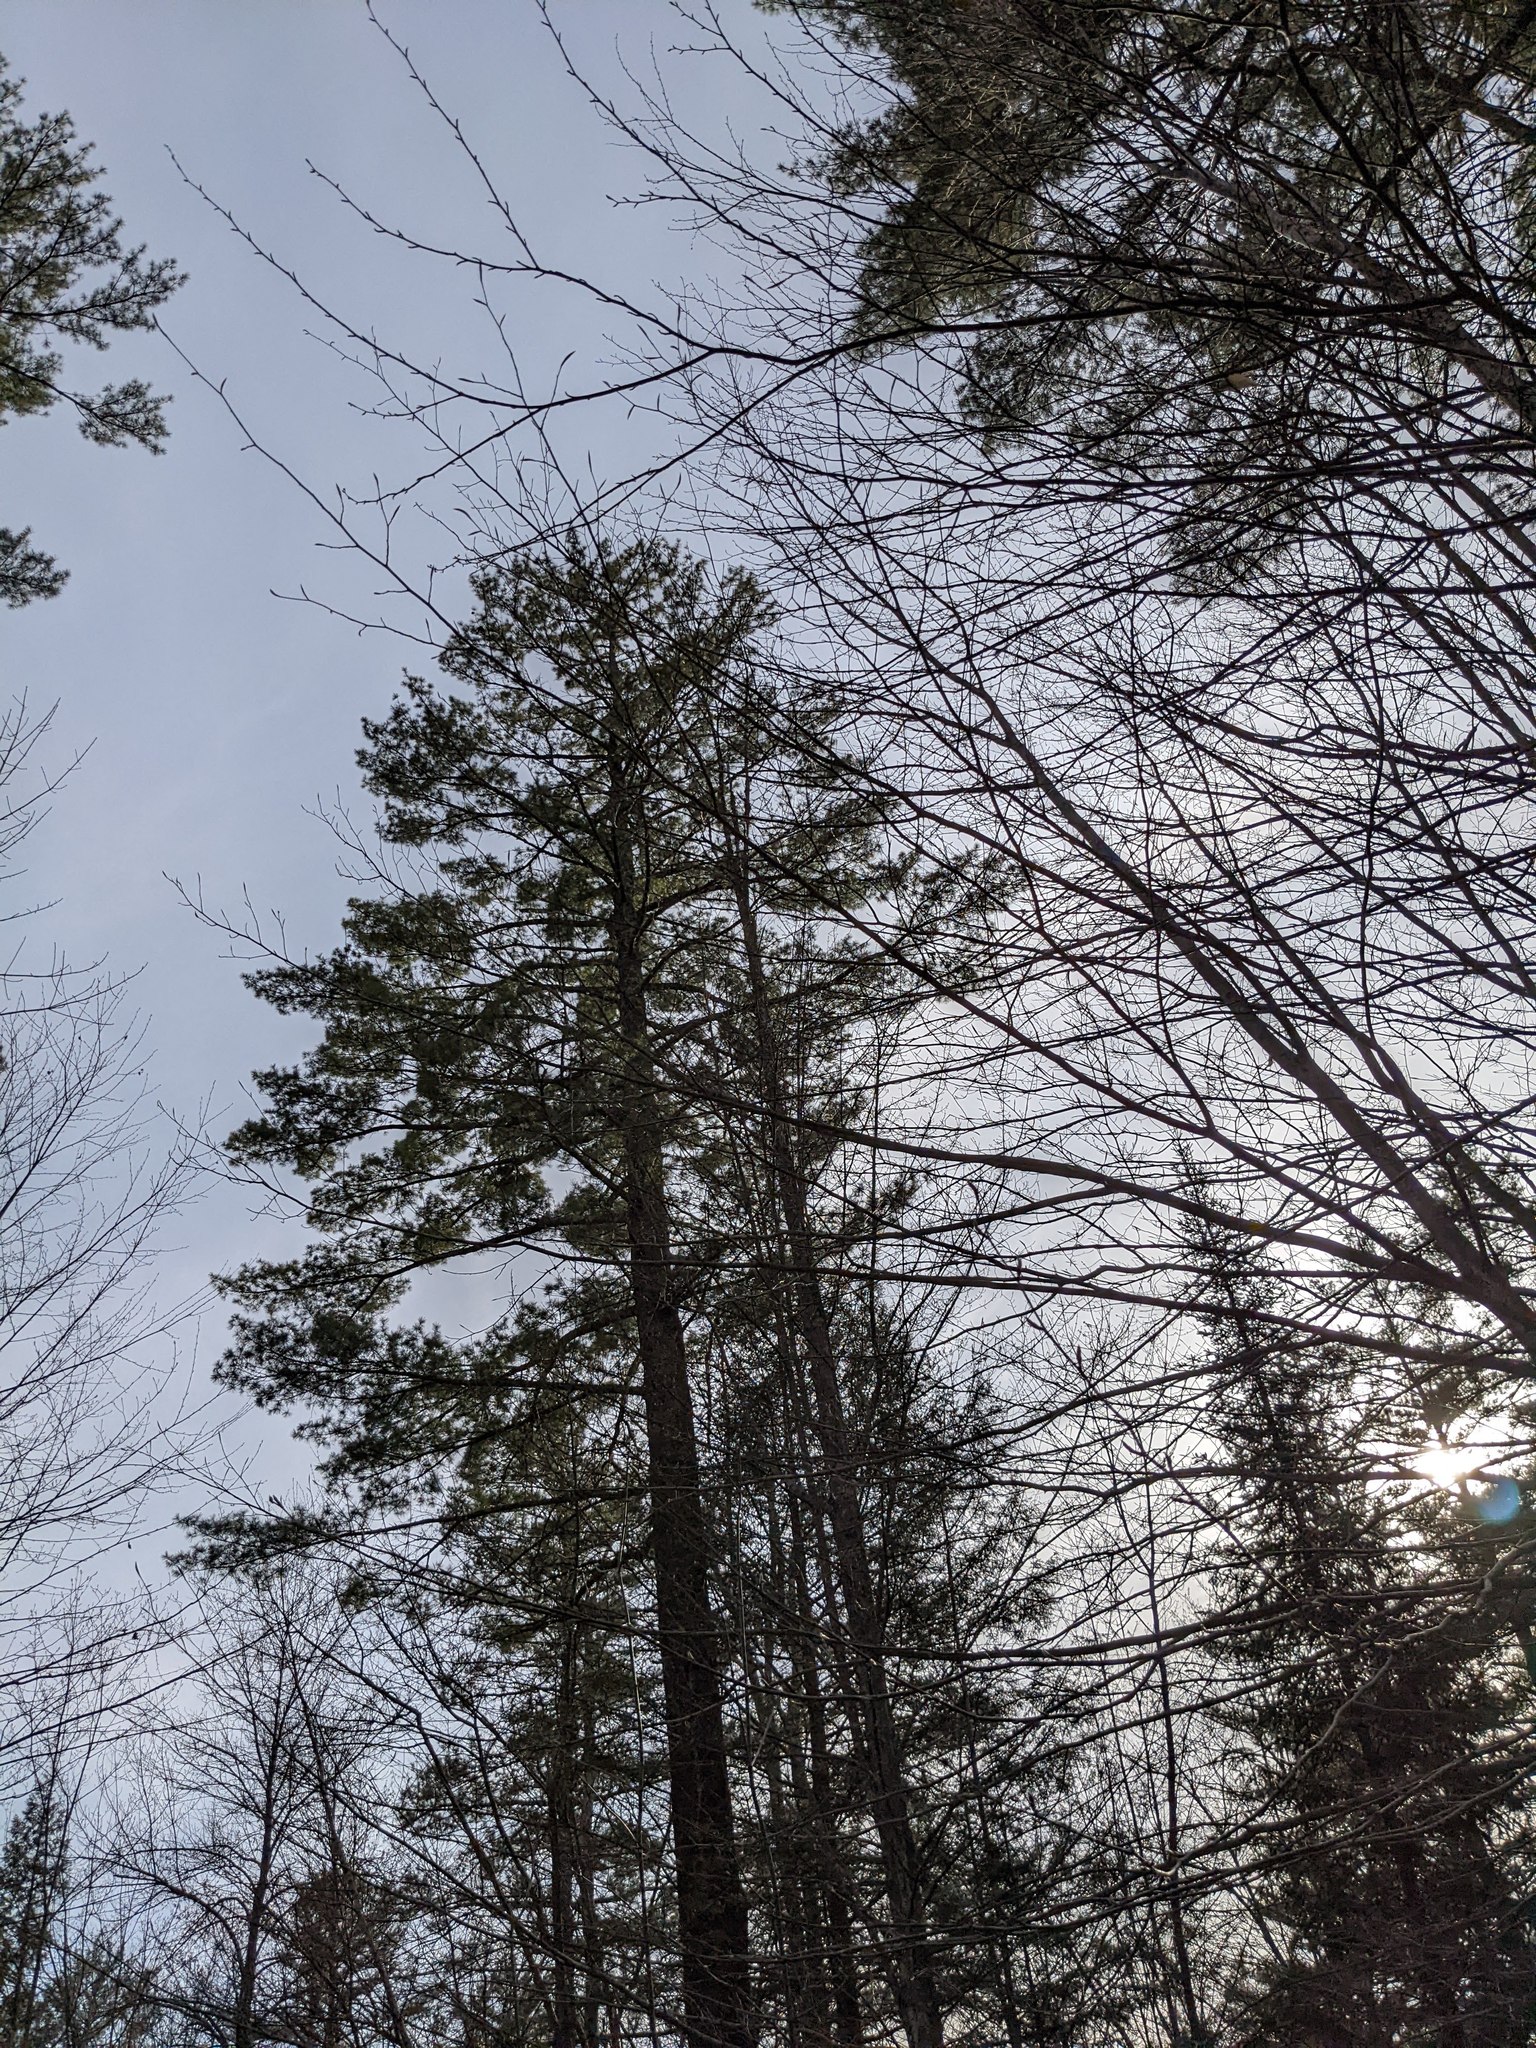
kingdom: Plantae
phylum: Tracheophyta
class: Pinopsida
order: Pinales
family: Pinaceae
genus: Pinus
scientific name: Pinus strobus
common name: Weymouth pine
